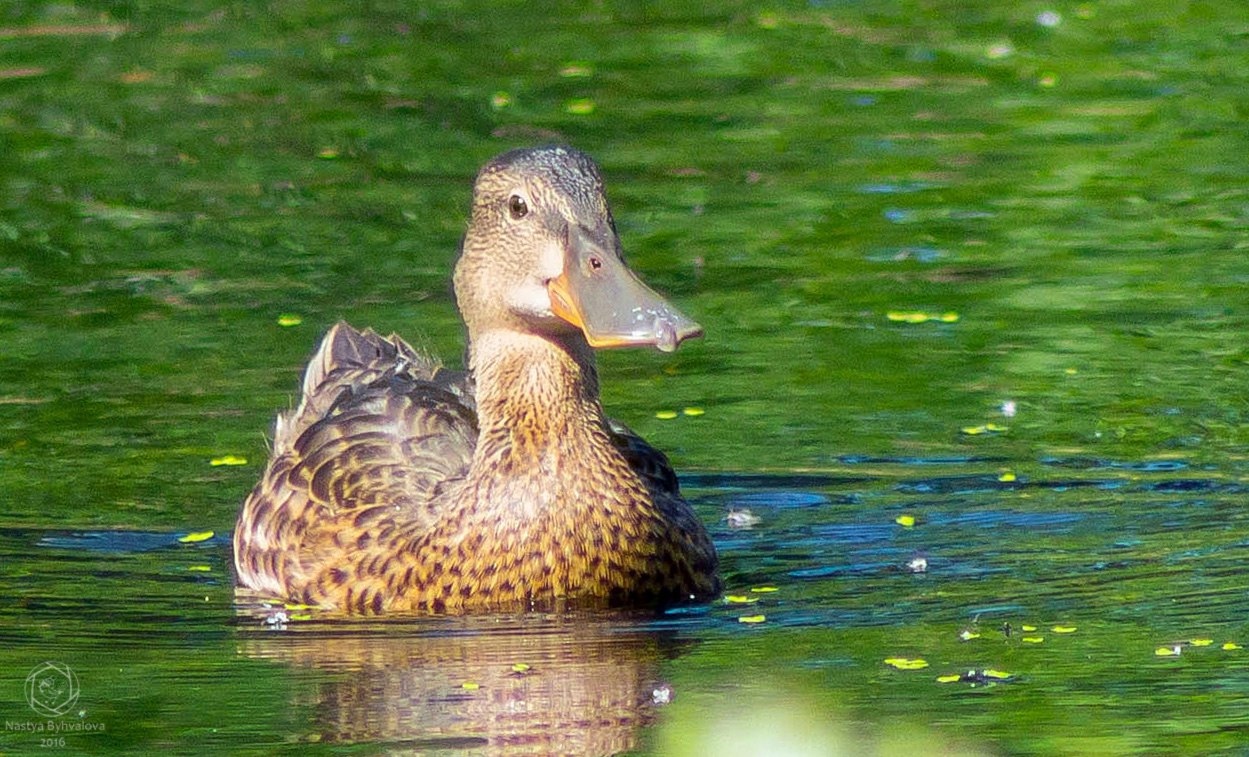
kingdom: Animalia
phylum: Chordata
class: Aves
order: Anseriformes
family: Anatidae
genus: Spatula
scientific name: Spatula clypeata
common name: Northern shoveler
